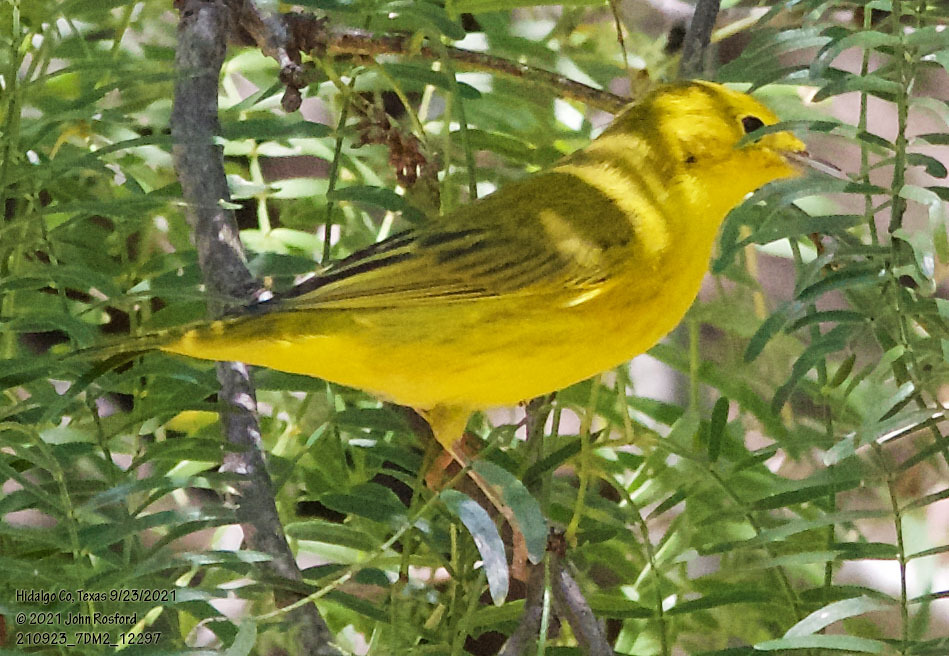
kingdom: Animalia
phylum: Chordata
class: Aves
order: Passeriformes
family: Parulidae
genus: Setophaga
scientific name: Setophaga petechia
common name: Yellow warbler
